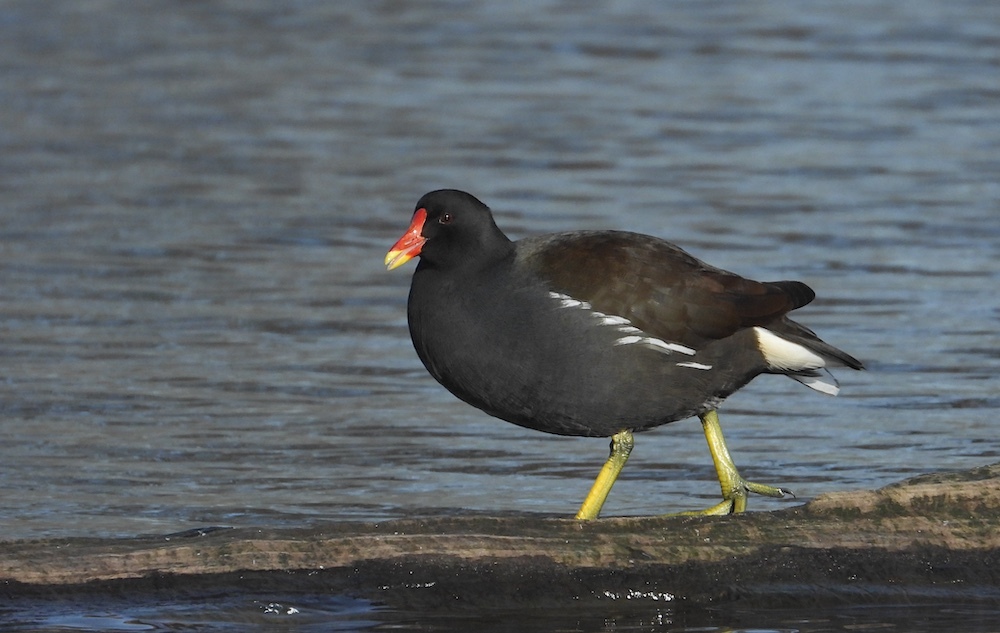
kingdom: Animalia
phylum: Chordata
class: Aves
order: Gruiformes
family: Rallidae
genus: Gallinula
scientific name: Gallinula chloropus
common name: Common moorhen
